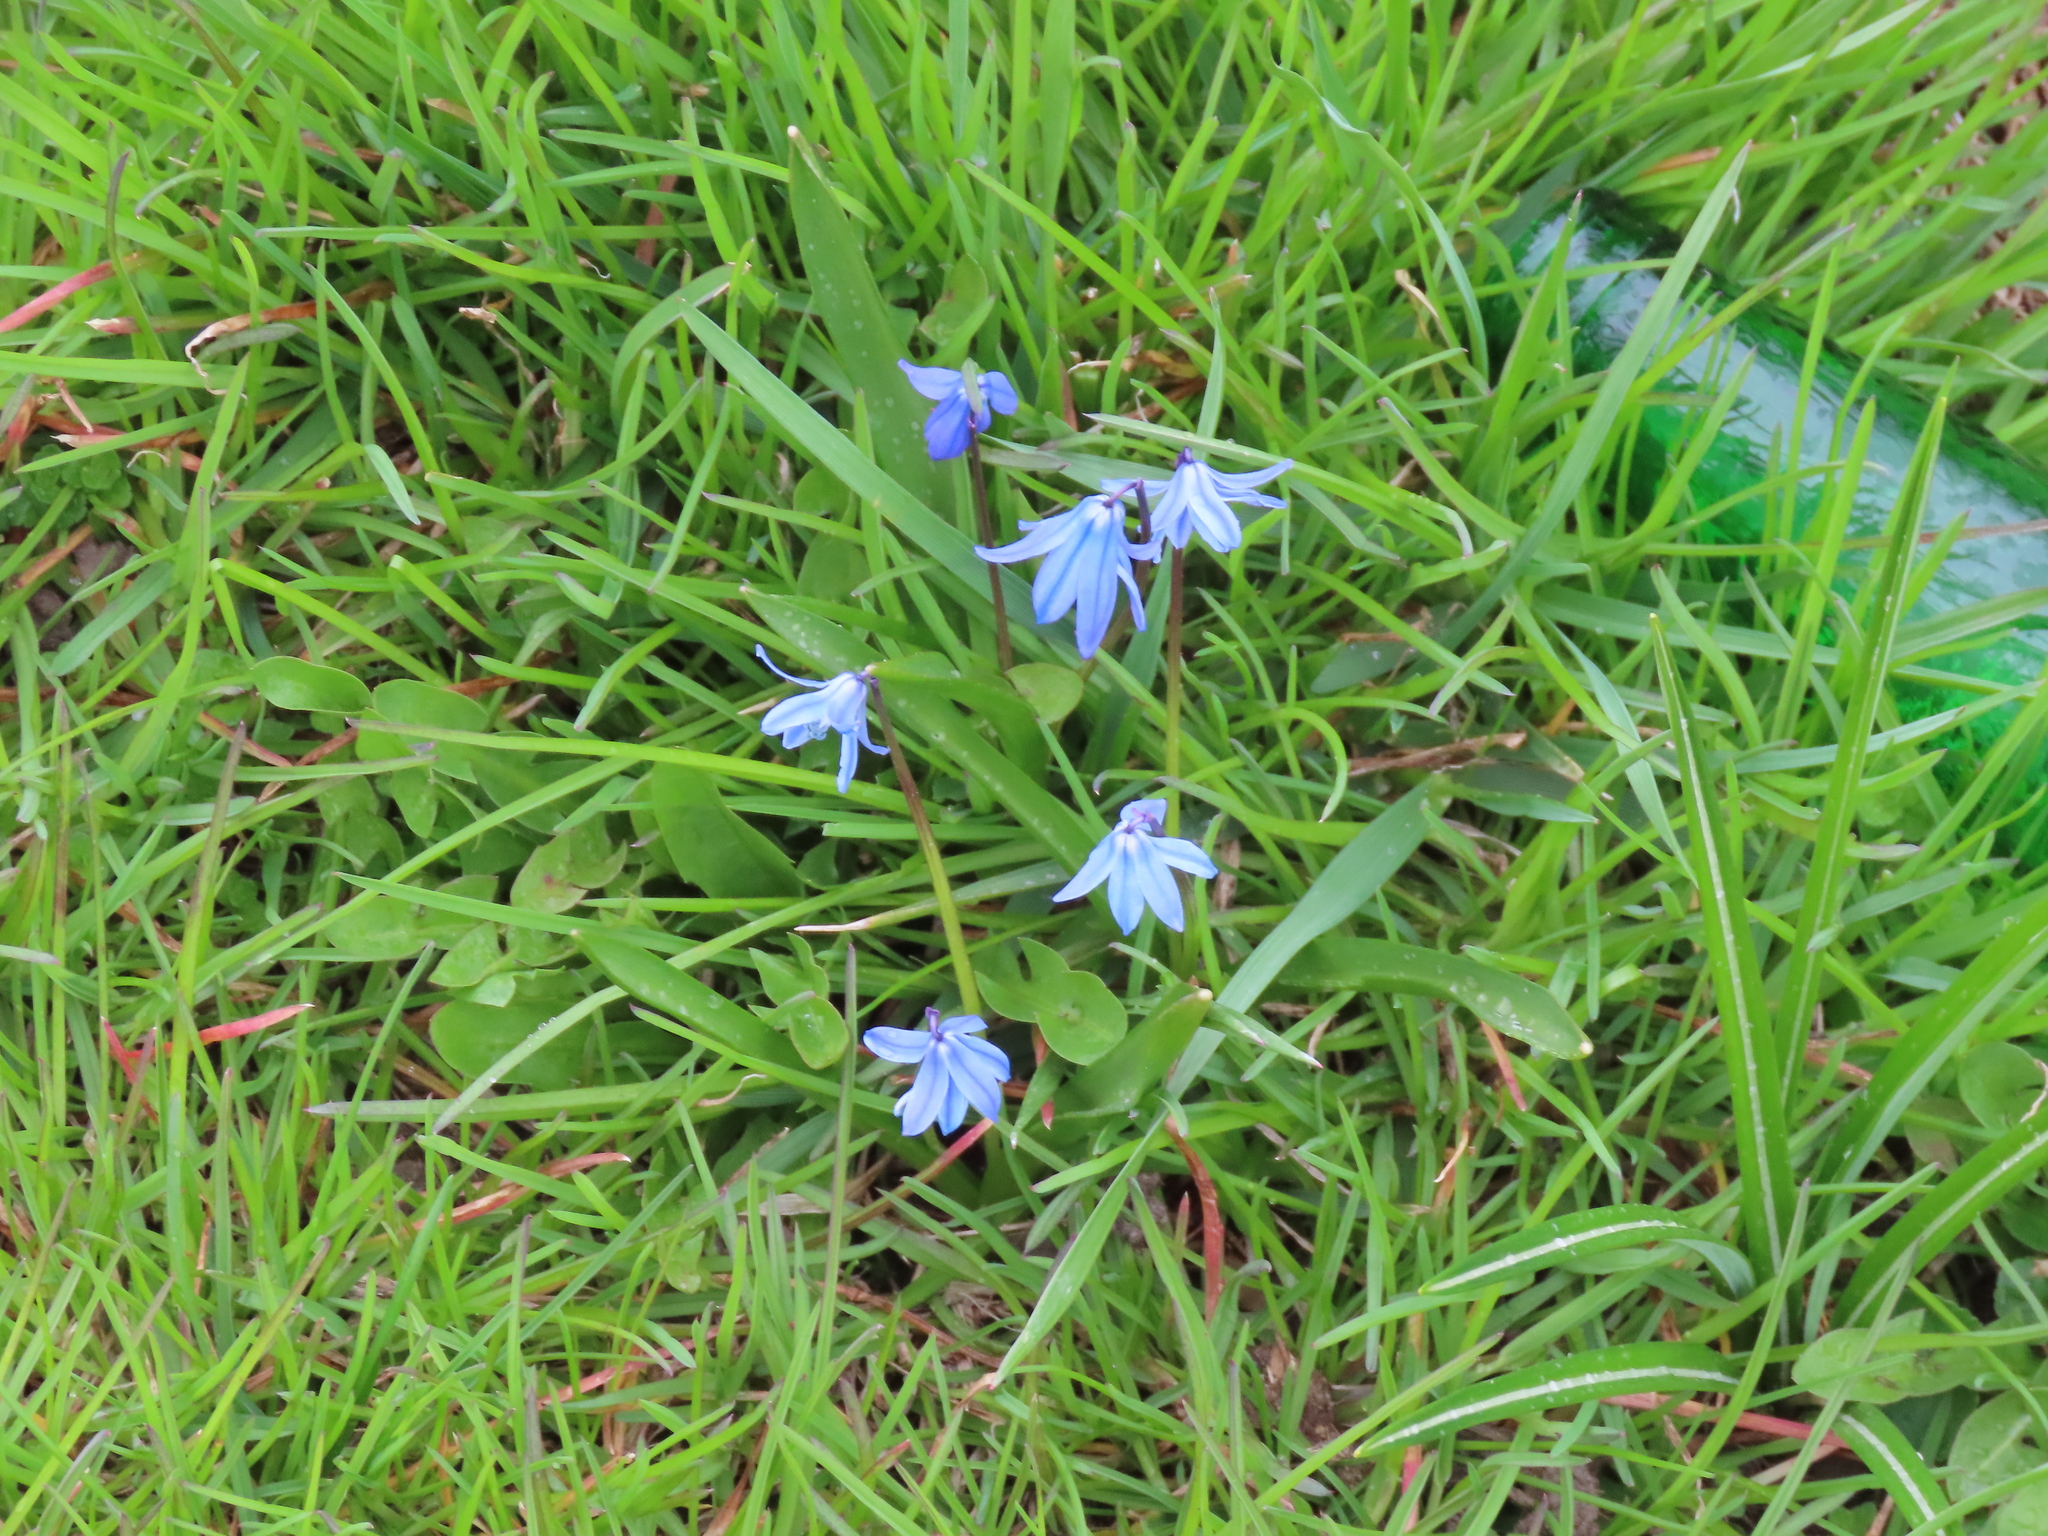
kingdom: Plantae
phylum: Tracheophyta
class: Liliopsida
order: Asparagales
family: Asparagaceae
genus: Scilla
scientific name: Scilla siberica
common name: Siberian squill
